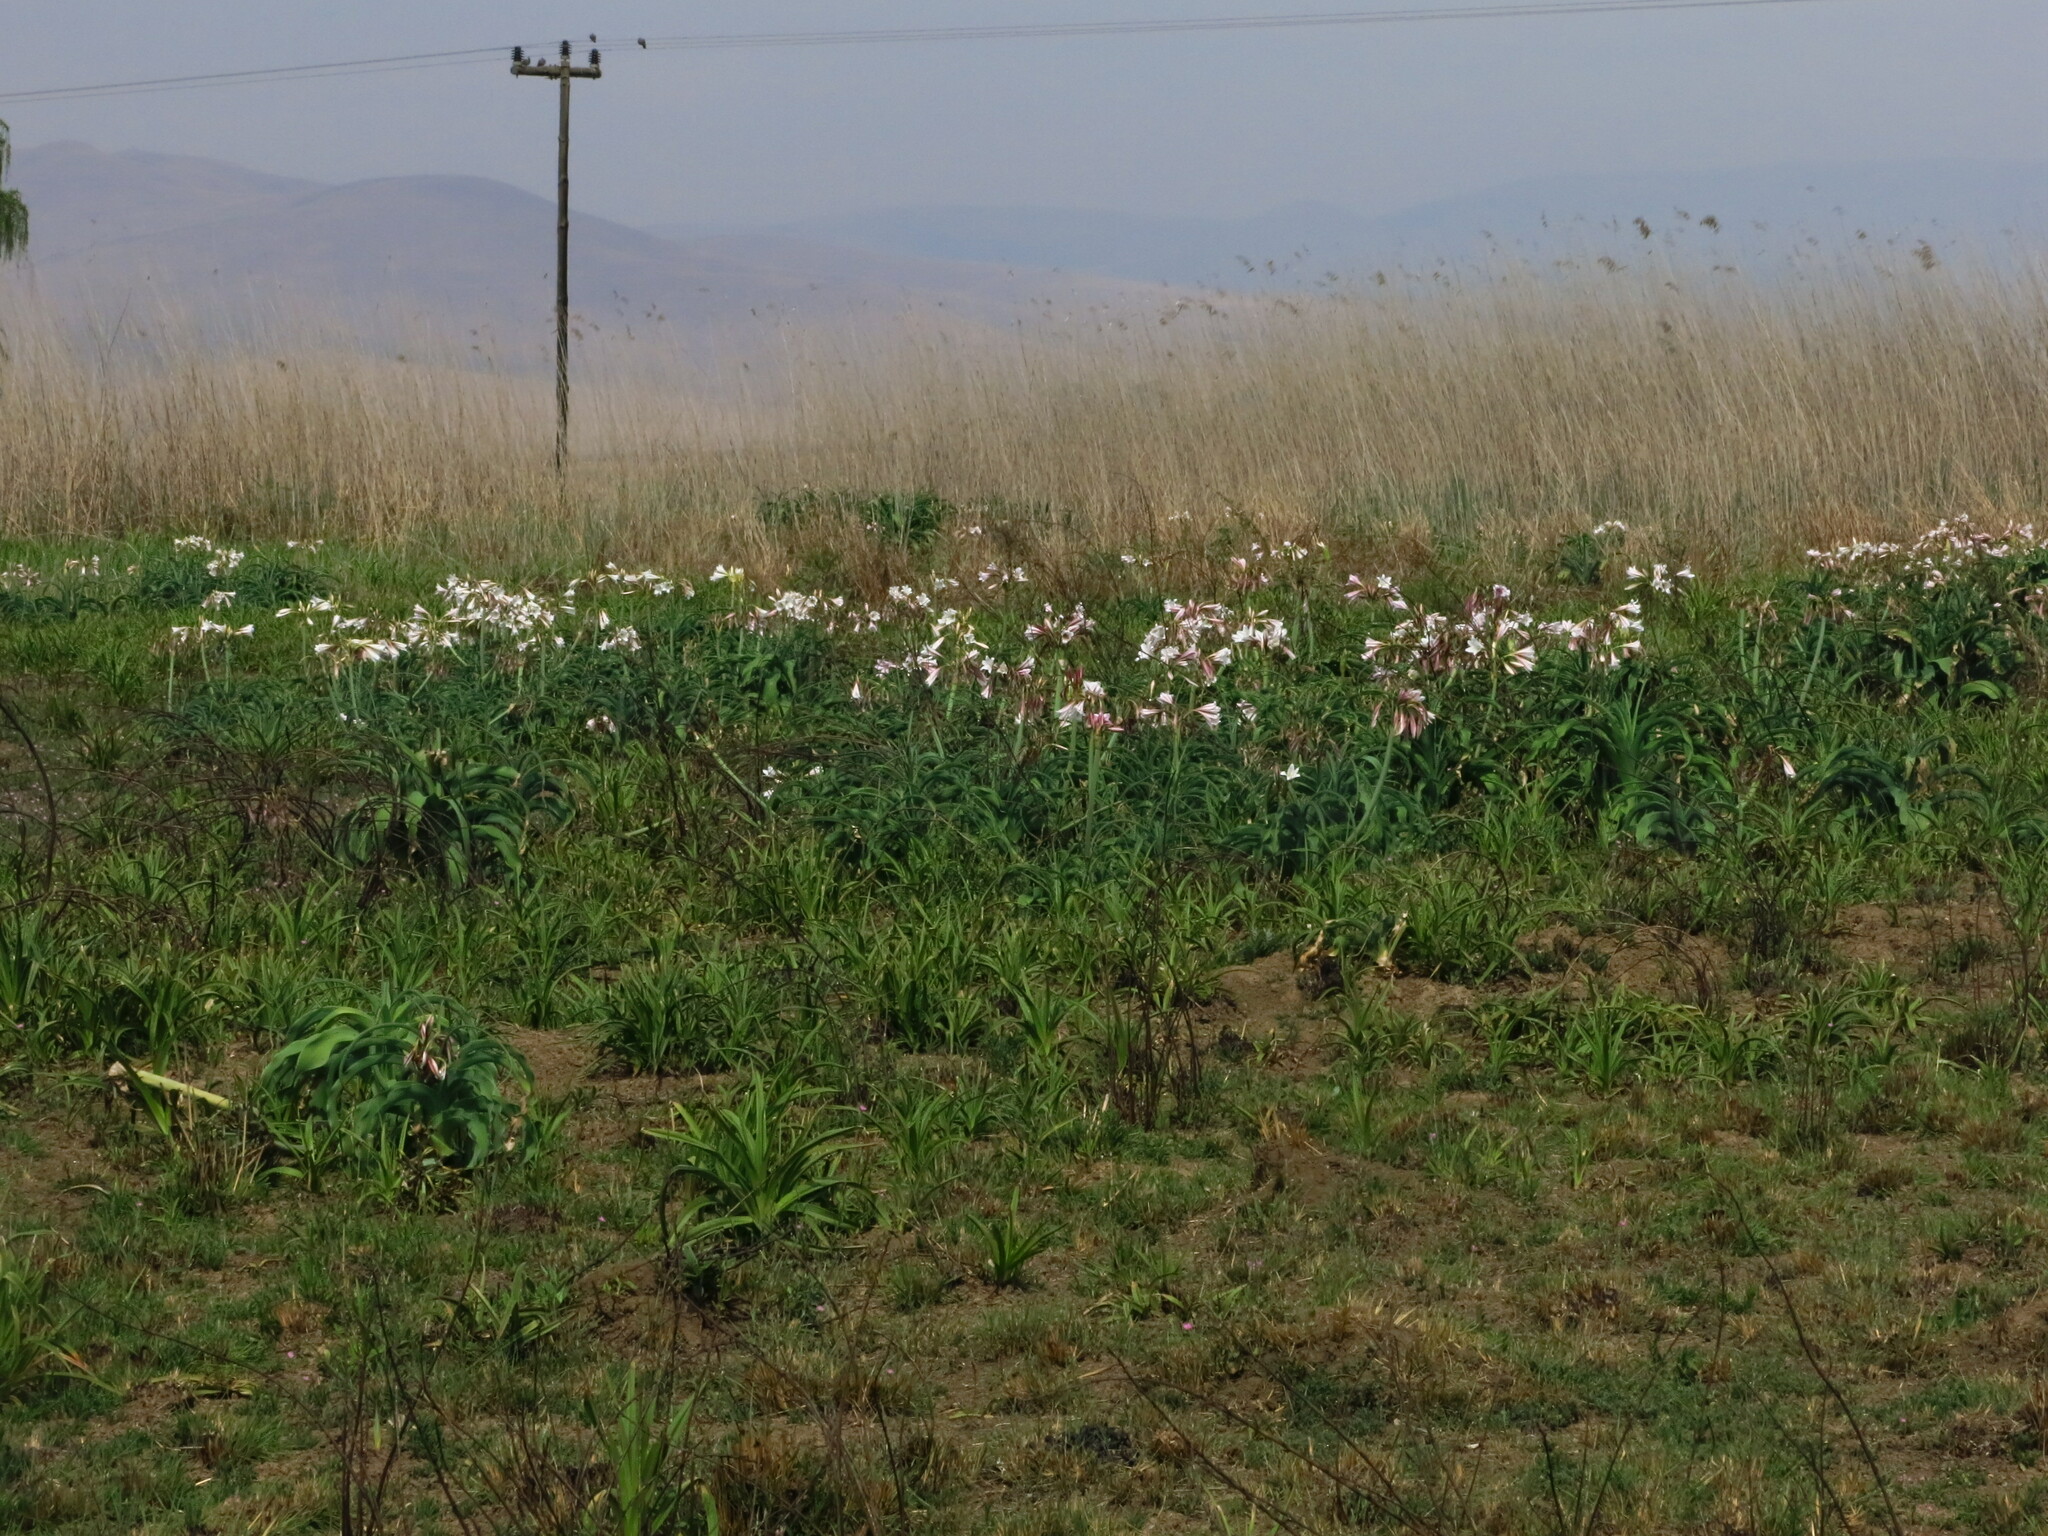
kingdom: Plantae
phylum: Tracheophyta
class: Liliopsida
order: Asparagales
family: Amaryllidaceae
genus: Crinum
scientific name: Crinum bulbispermum
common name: Hardy swamplily
